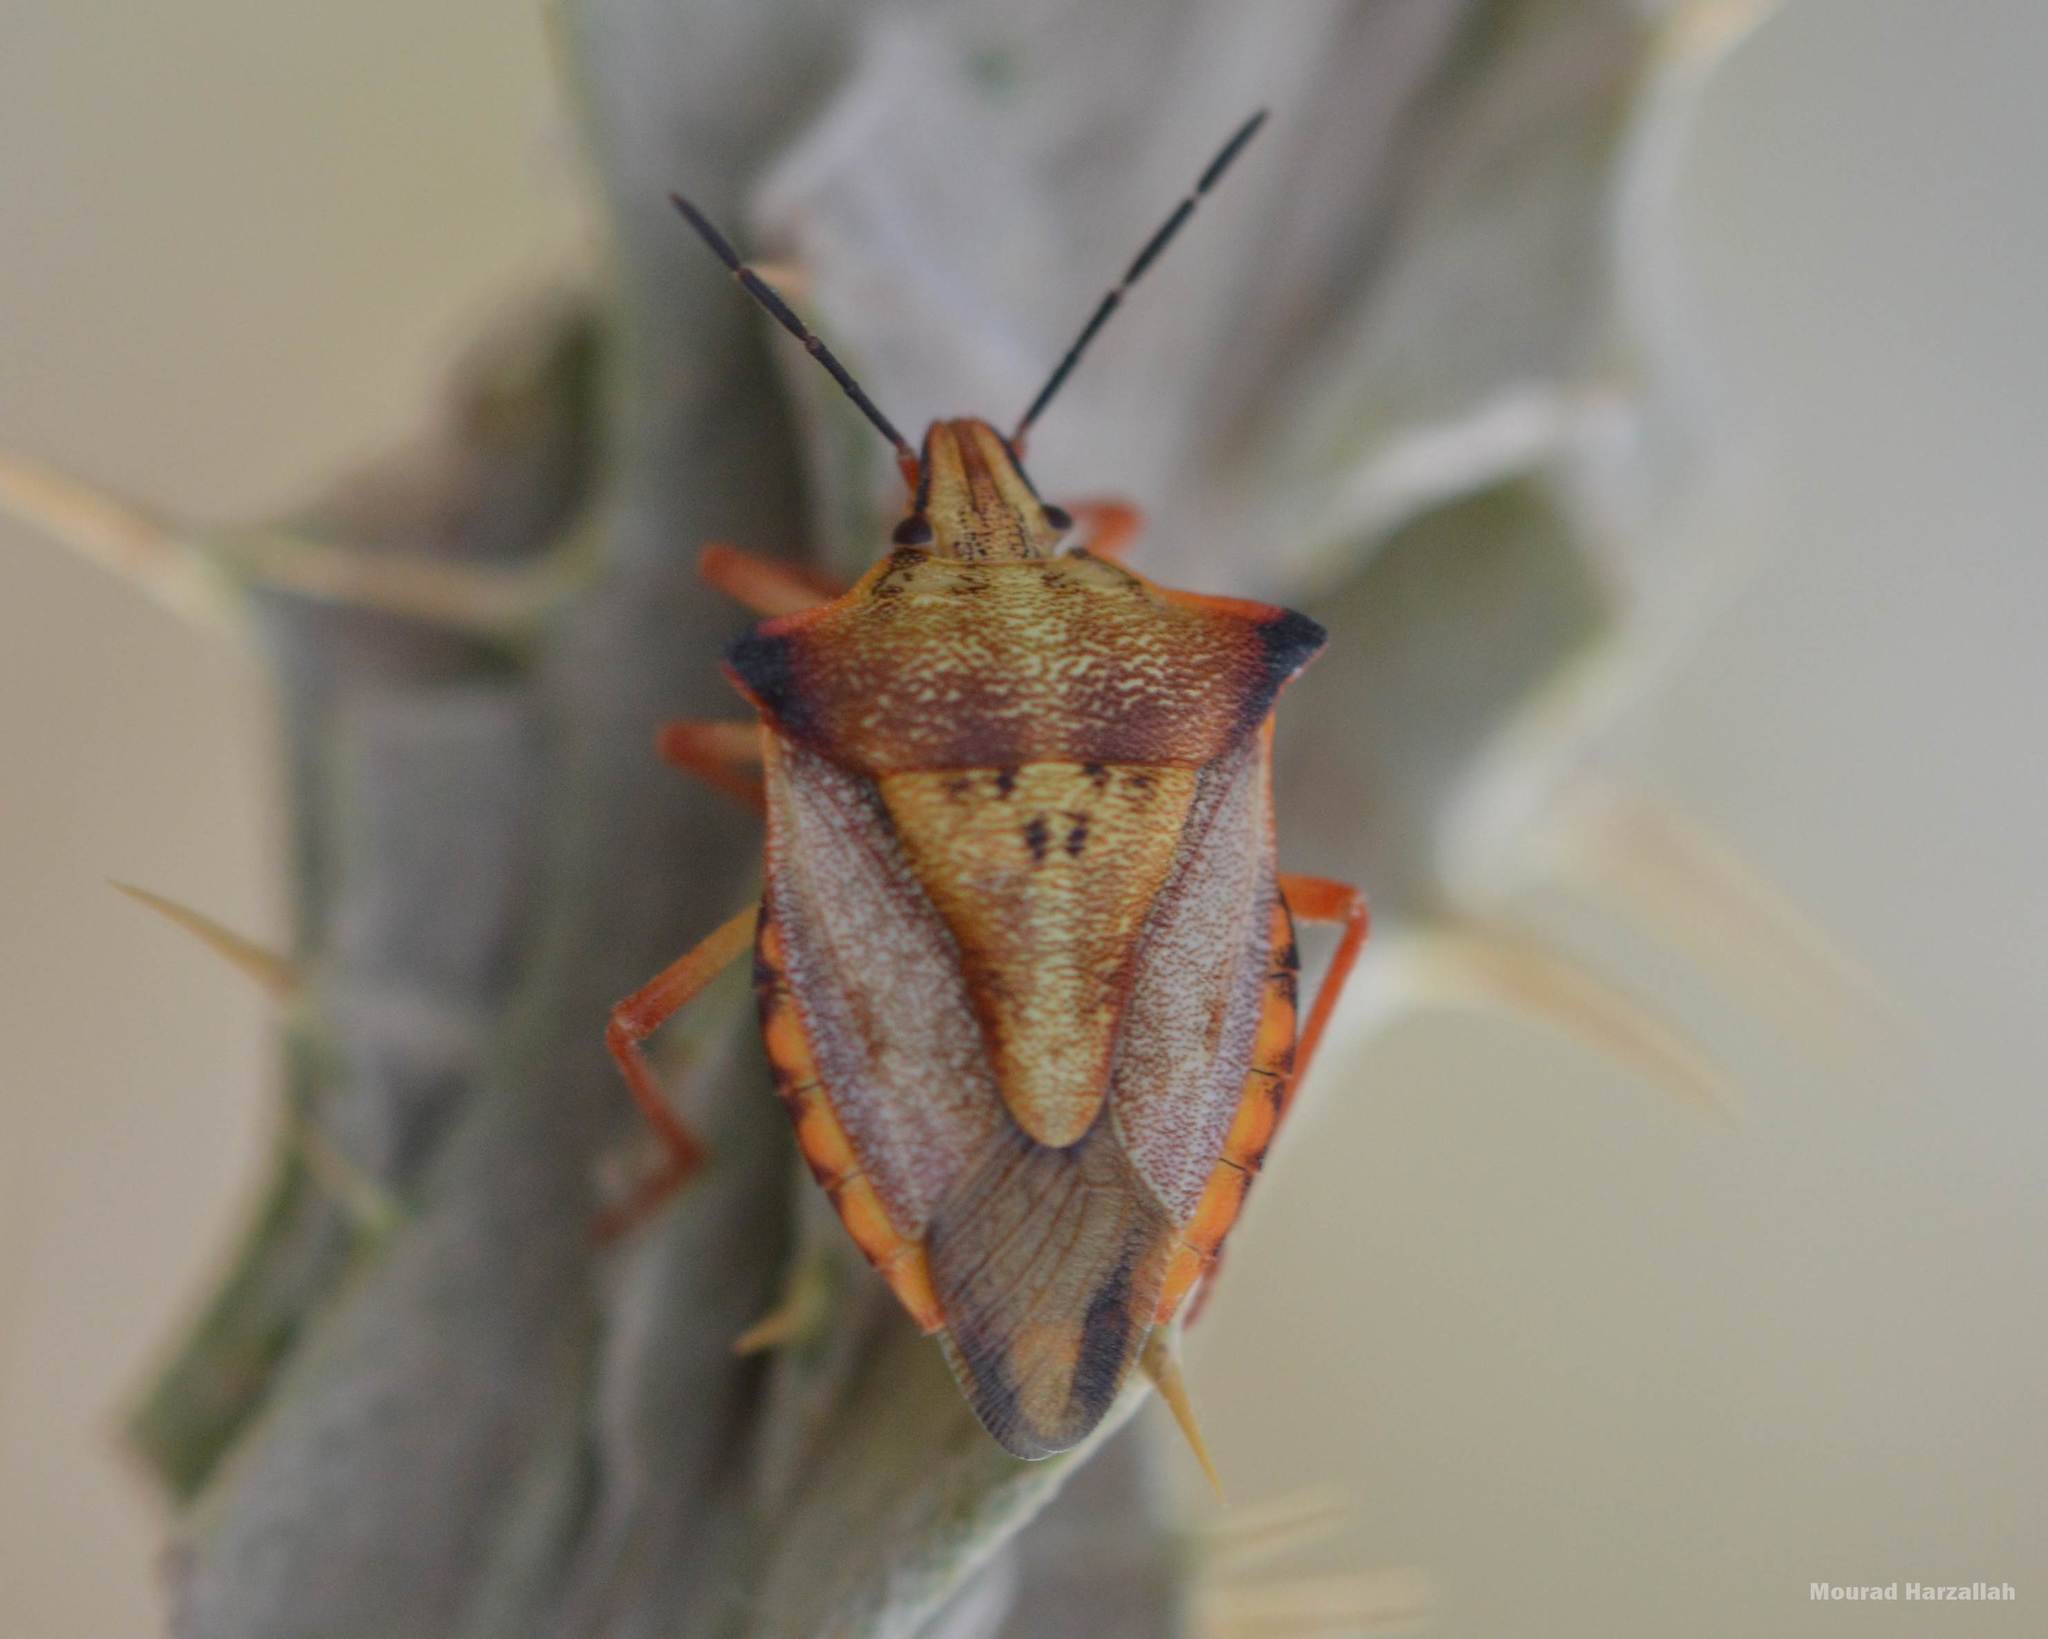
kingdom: Animalia
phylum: Arthropoda
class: Insecta
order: Hemiptera
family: Pentatomidae
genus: Carpocoris
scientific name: Carpocoris mediterraneus
